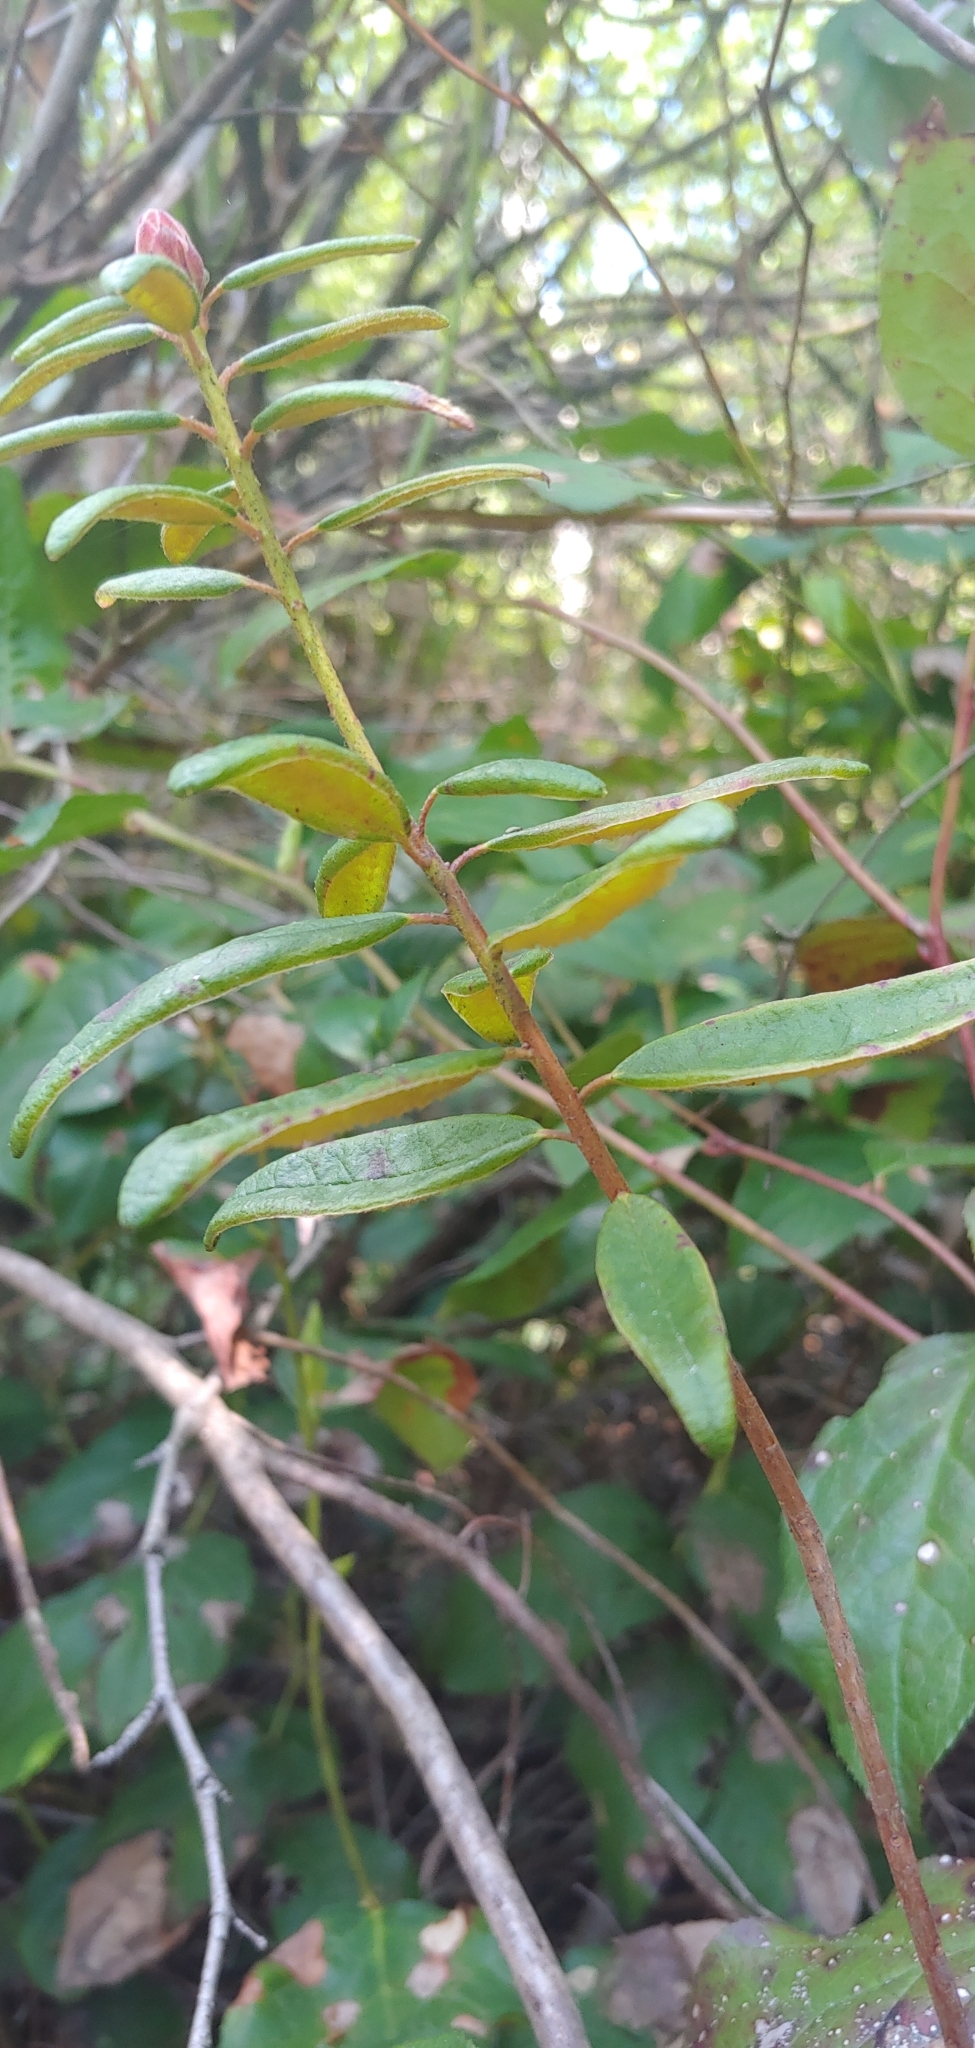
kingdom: Plantae
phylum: Tracheophyta
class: Magnoliopsida
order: Ericales
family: Ericaceae
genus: Rhododendron
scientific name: Rhododendron groenlandicum
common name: Bog labrador tea
